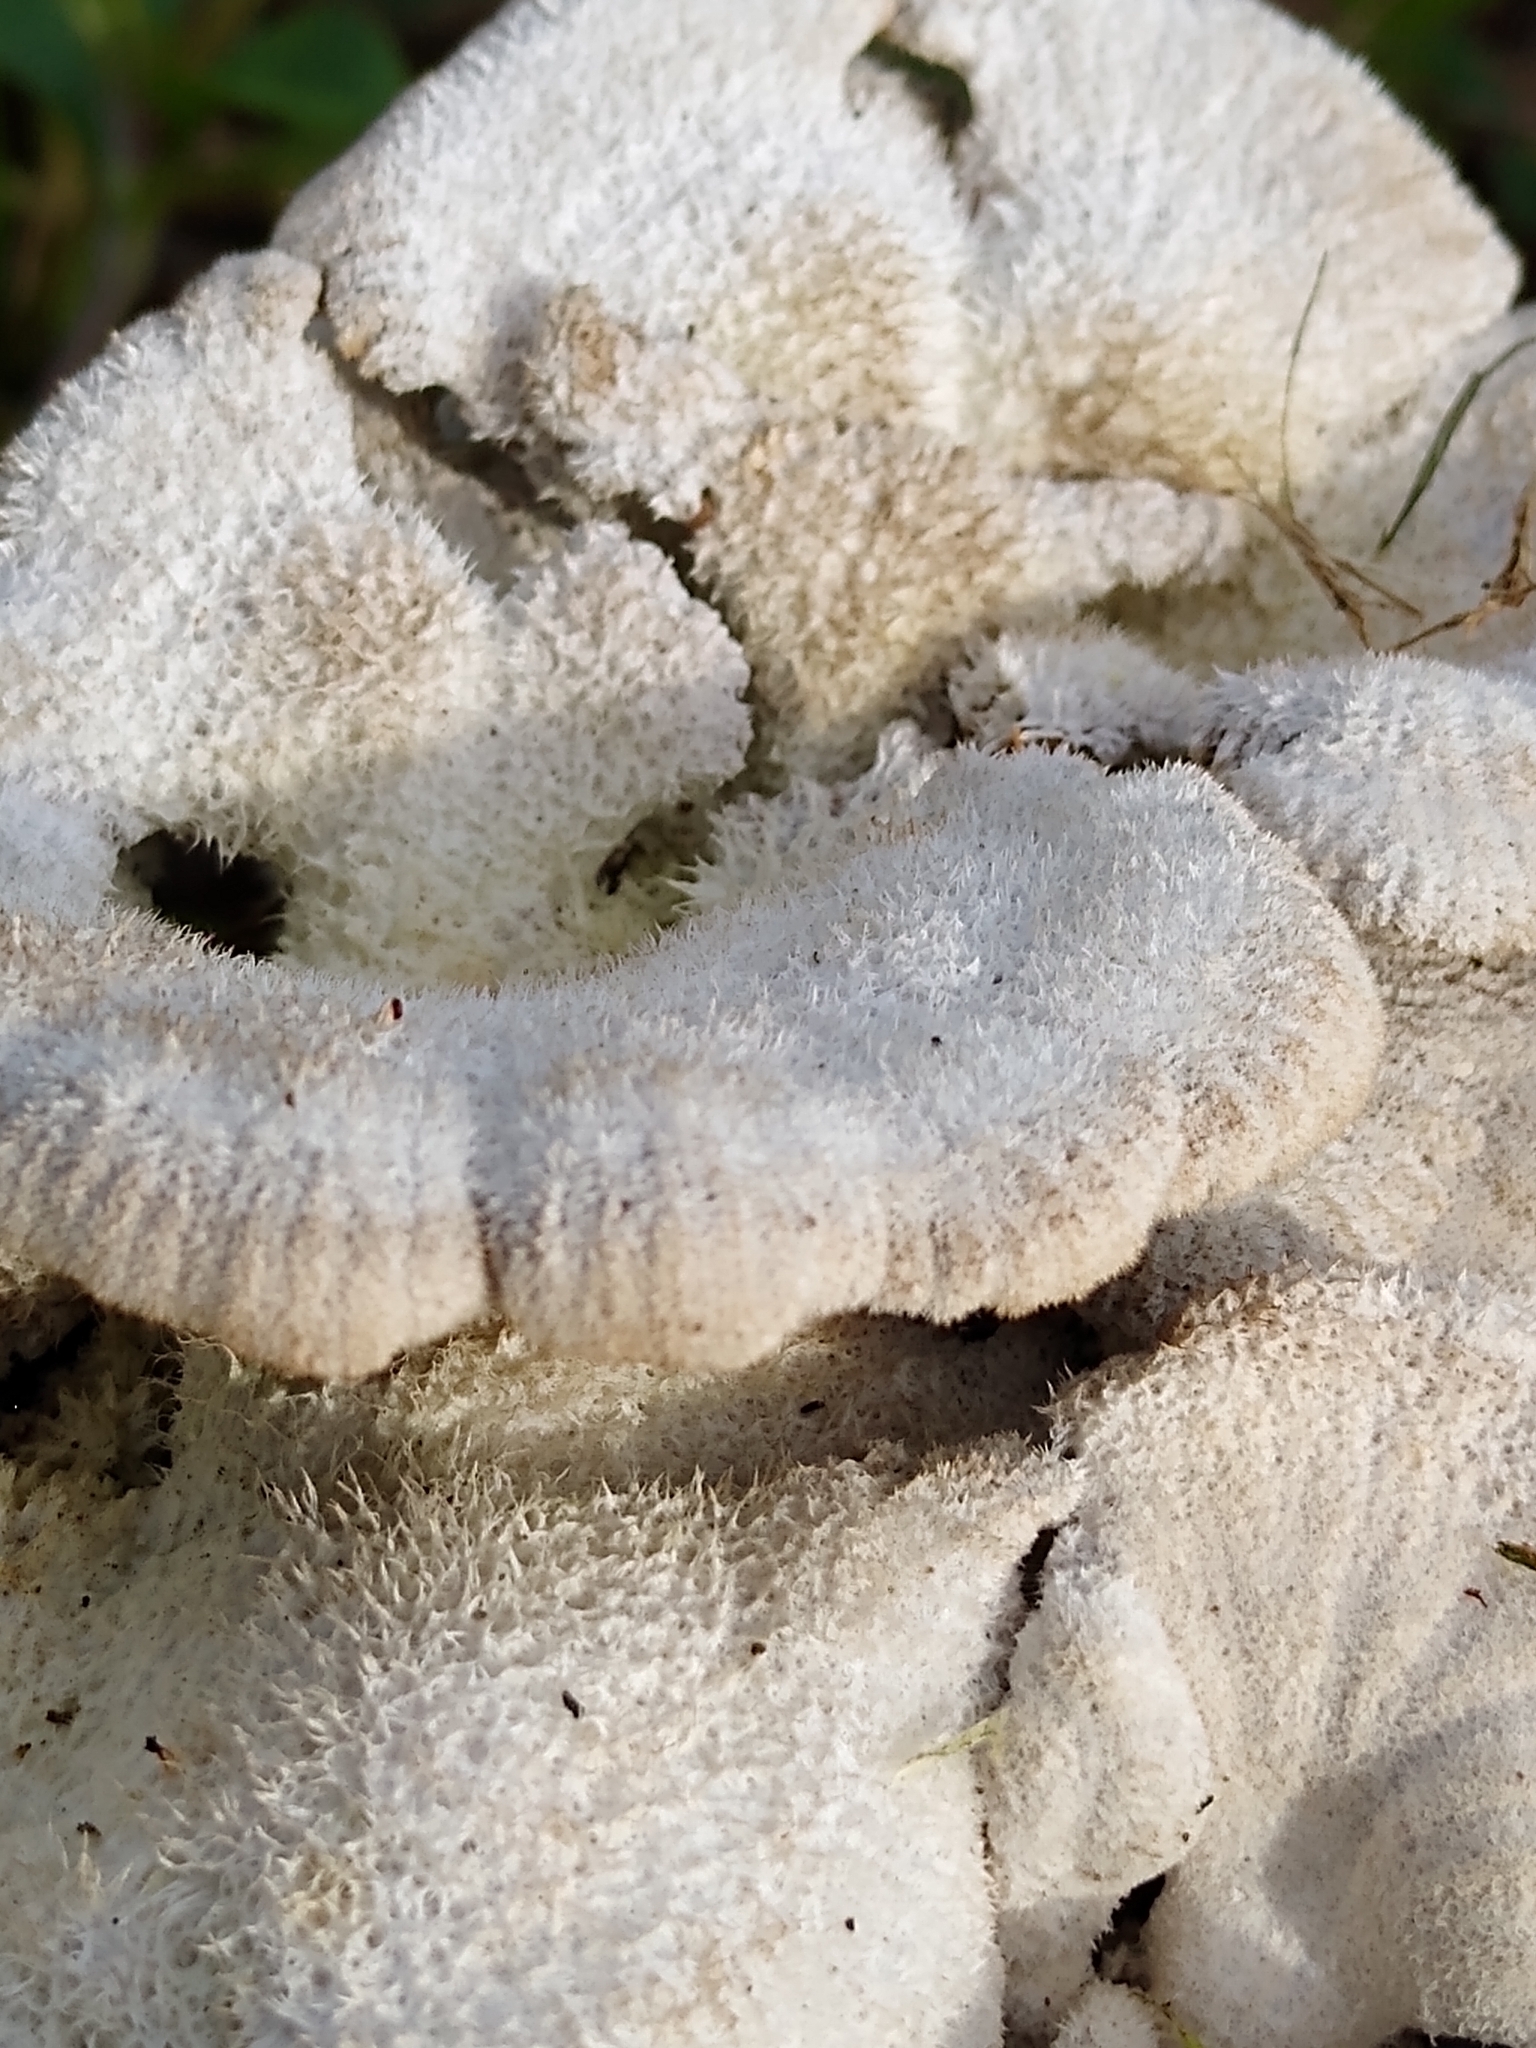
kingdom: Fungi
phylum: Basidiomycota
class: Agaricomycetes
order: Agaricales
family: Schizophyllaceae
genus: Schizophyllum
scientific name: Schizophyllum commune
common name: Common porecrust
